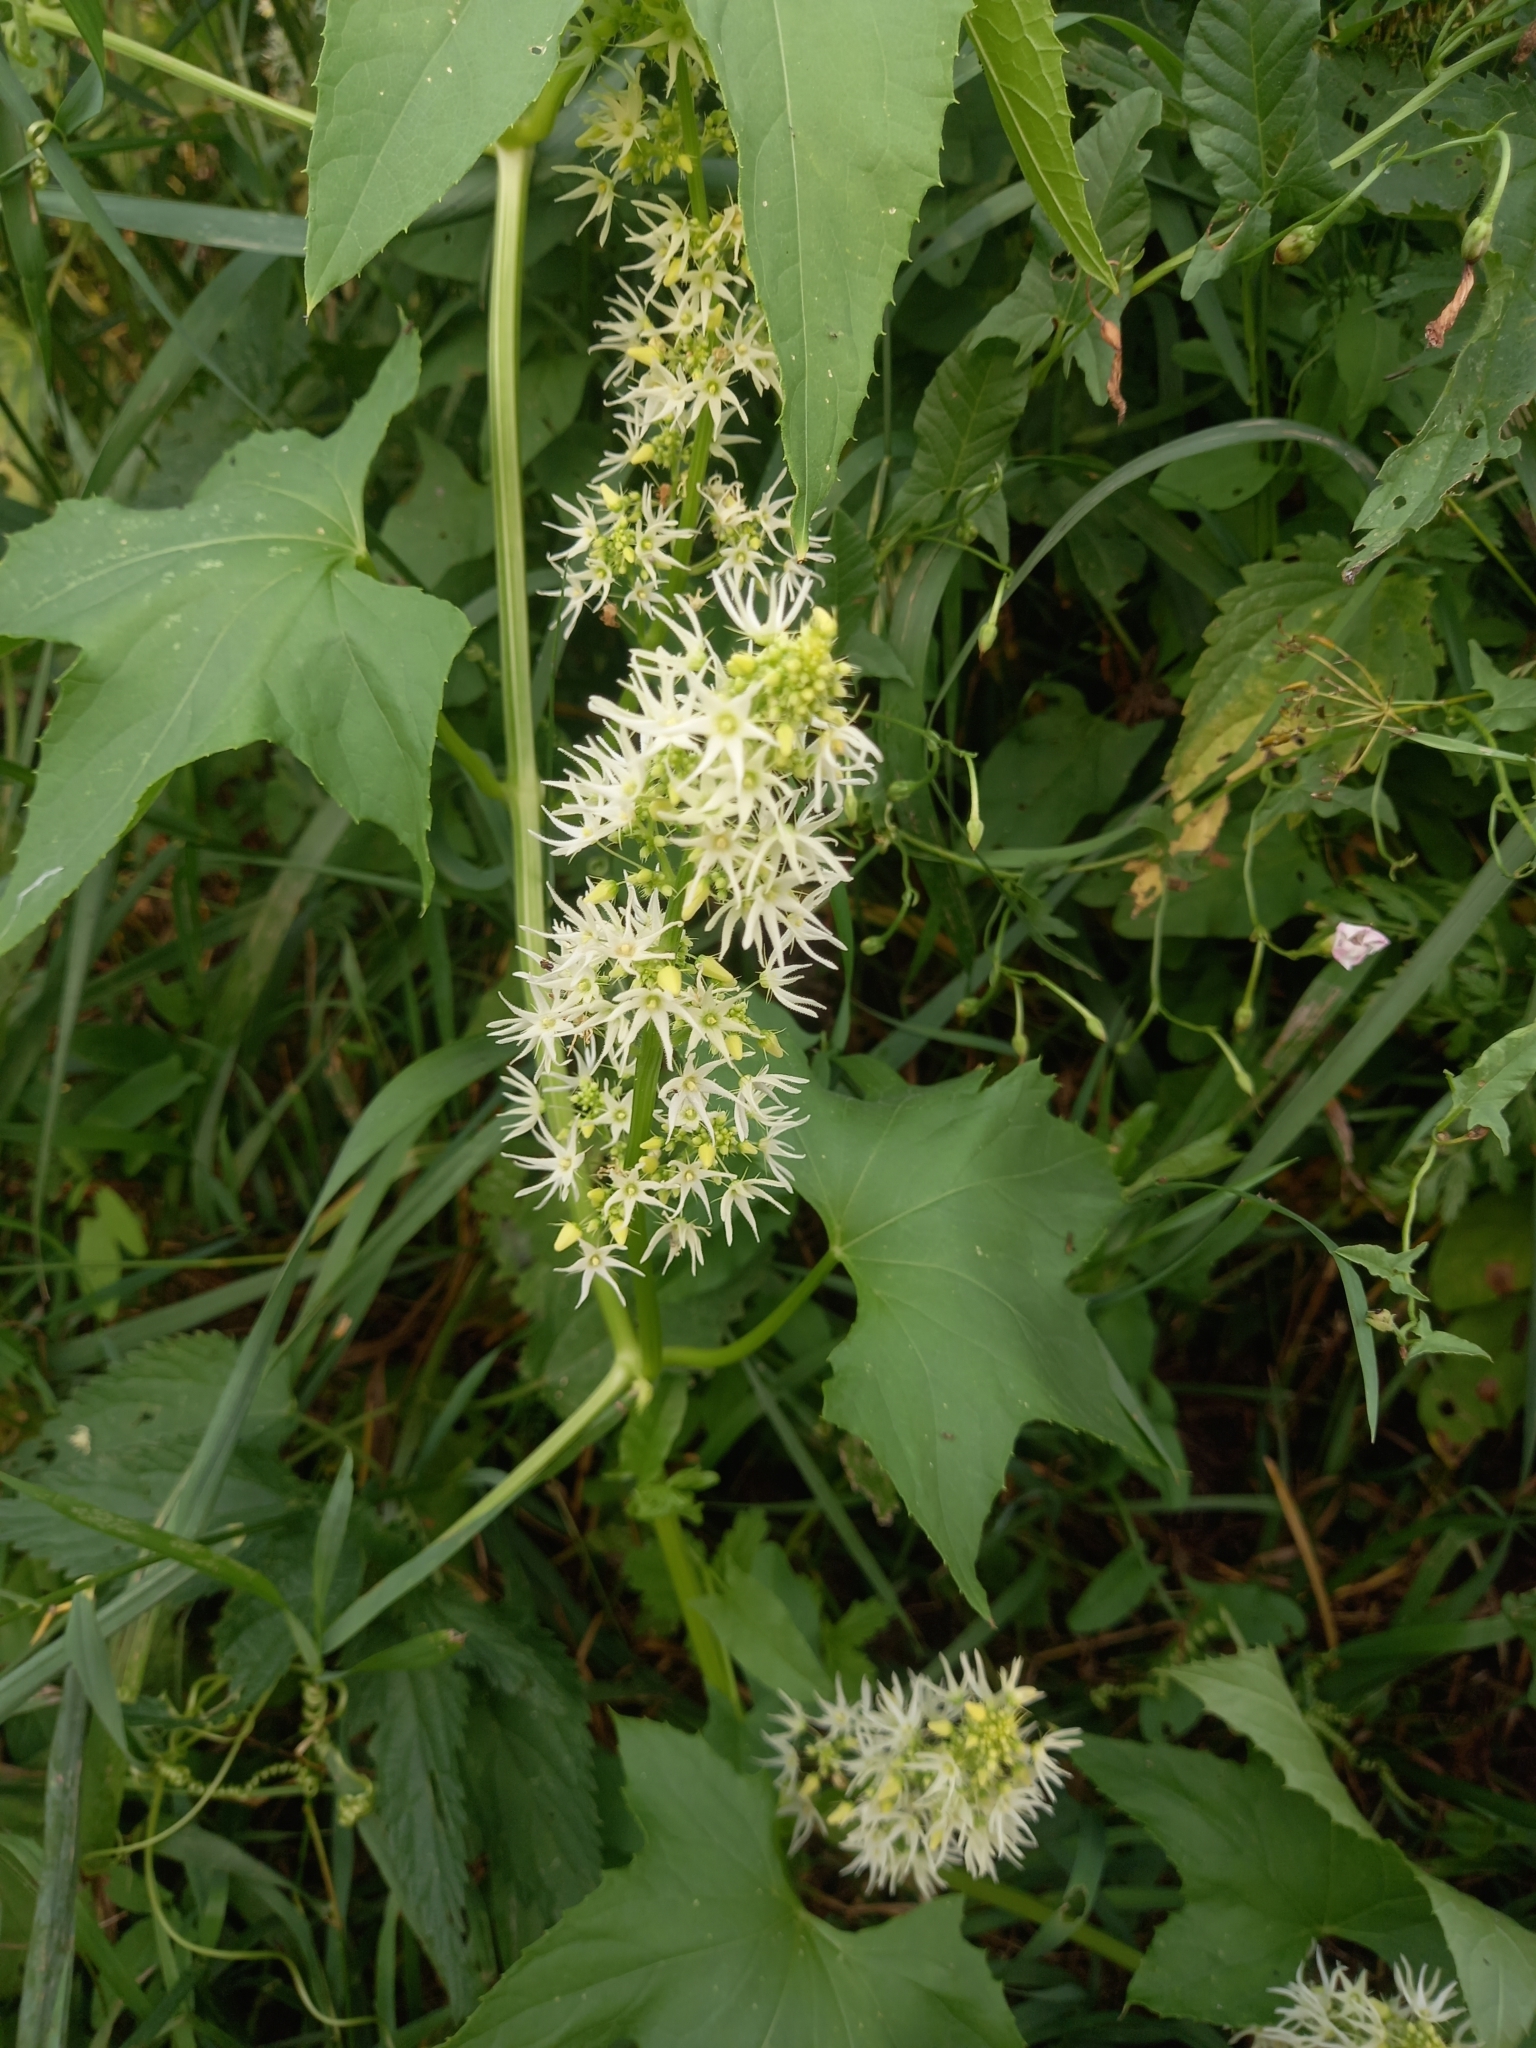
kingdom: Plantae
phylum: Tracheophyta
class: Magnoliopsida
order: Cucurbitales
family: Cucurbitaceae
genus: Echinocystis
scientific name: Echinocystis lobata
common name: Wild cucumber
